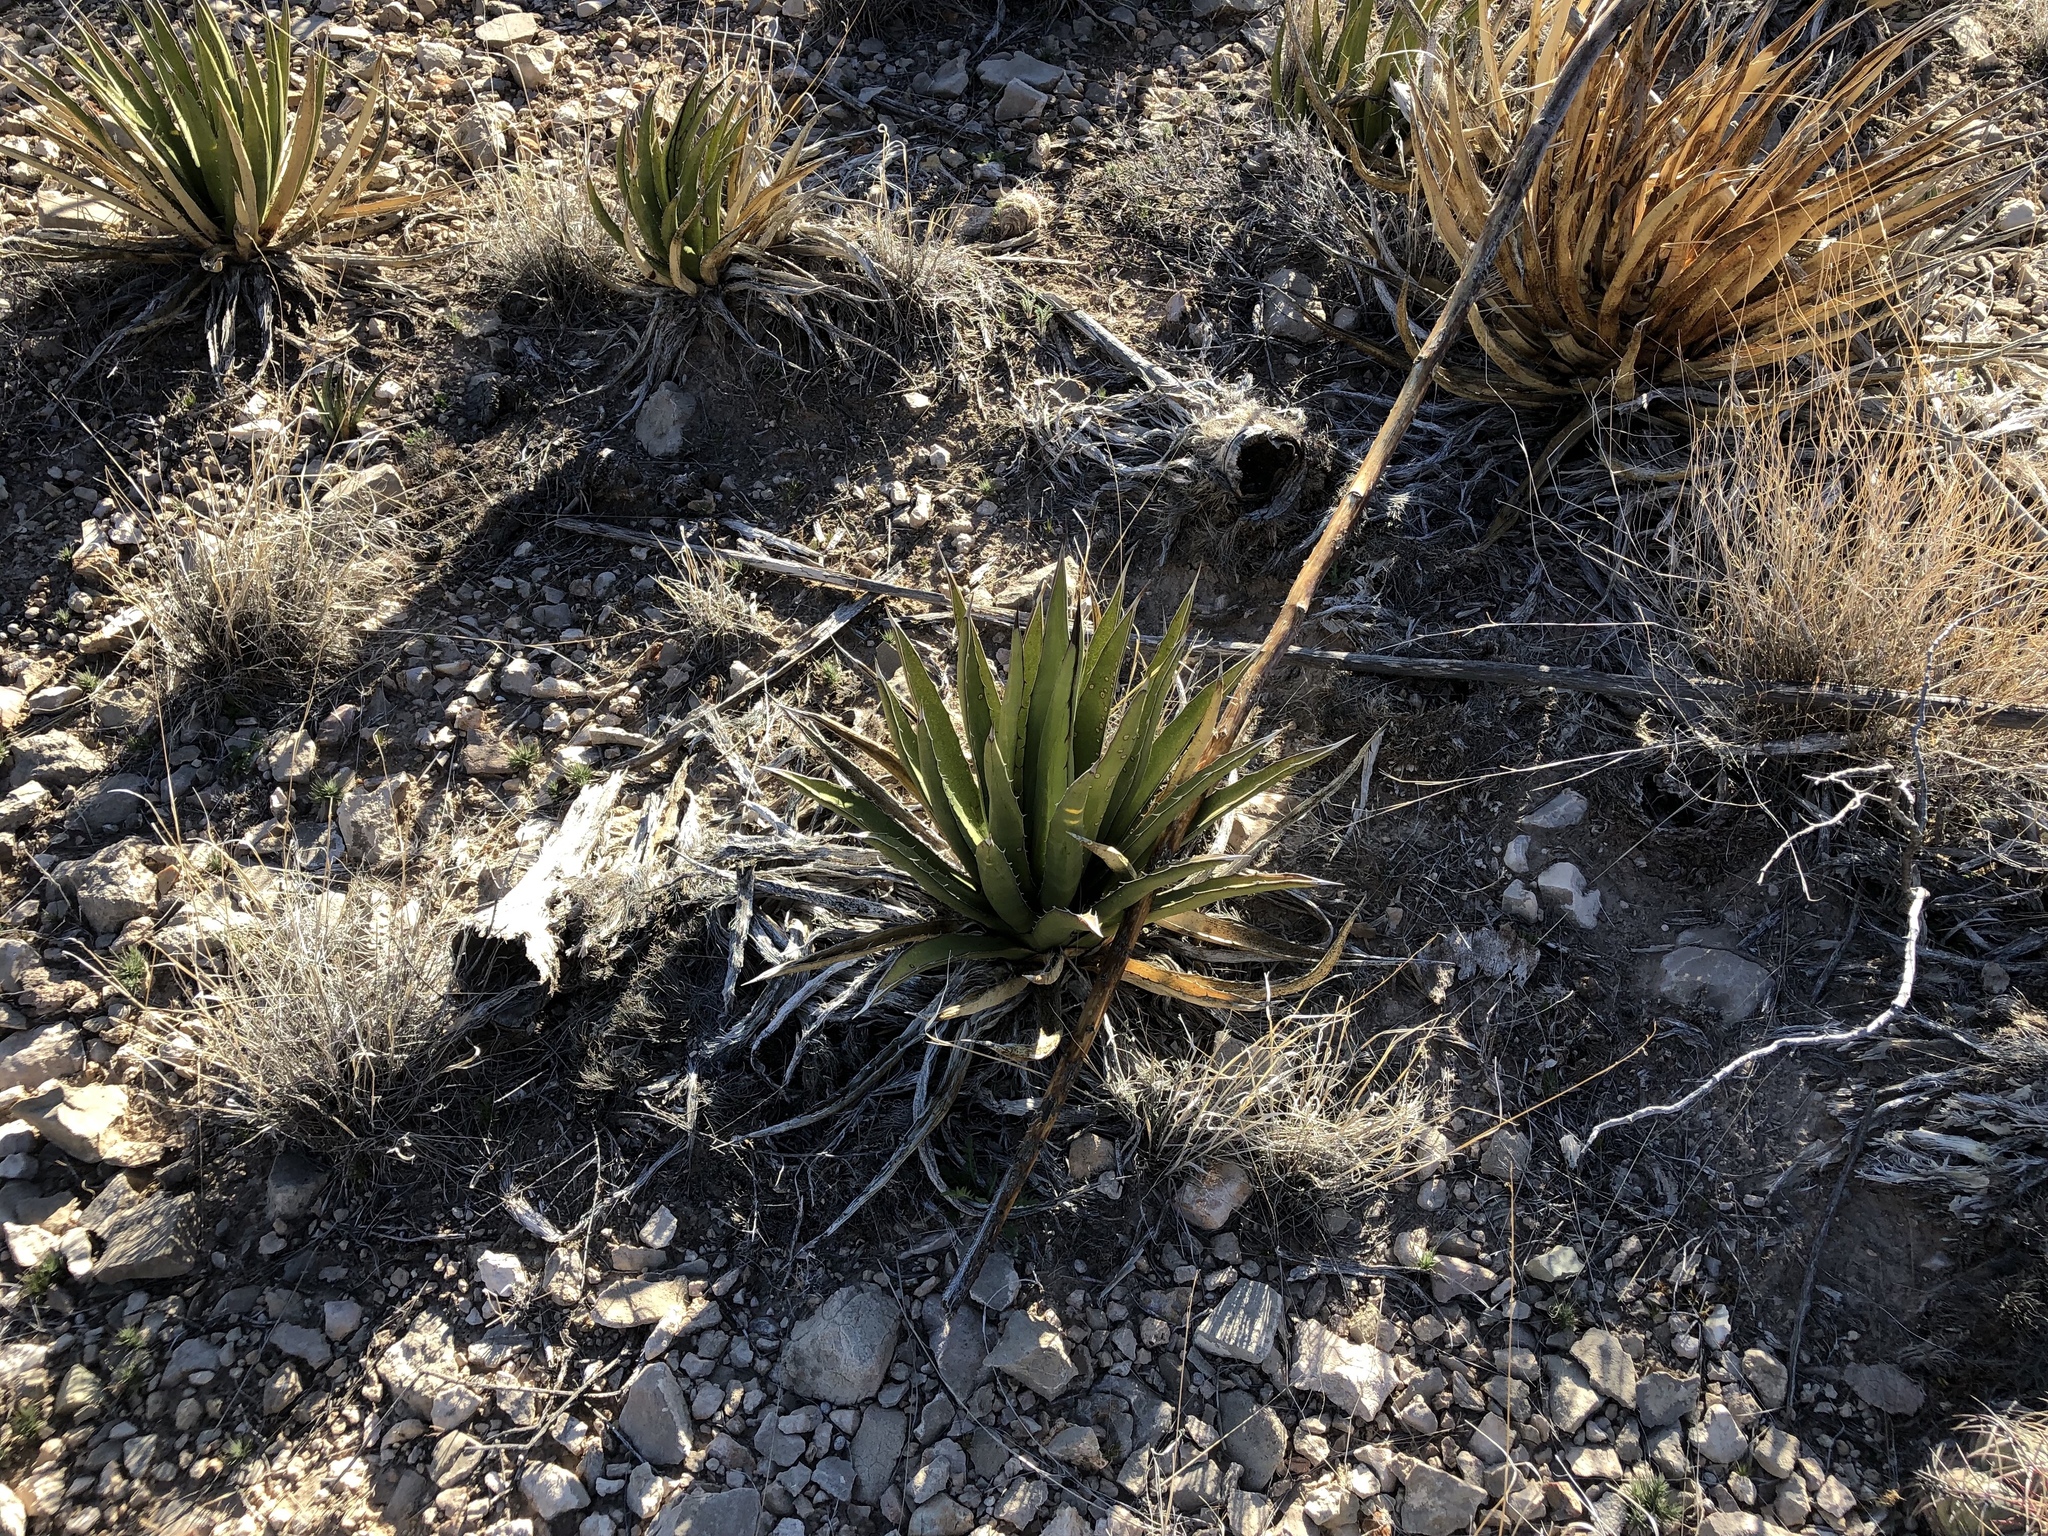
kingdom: Plantae
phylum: Tracheophyta
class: Liliopsida
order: Asparagales
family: Asparagaceae
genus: Agave
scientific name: Agave lechuguilla
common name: Lecheguilla agave
